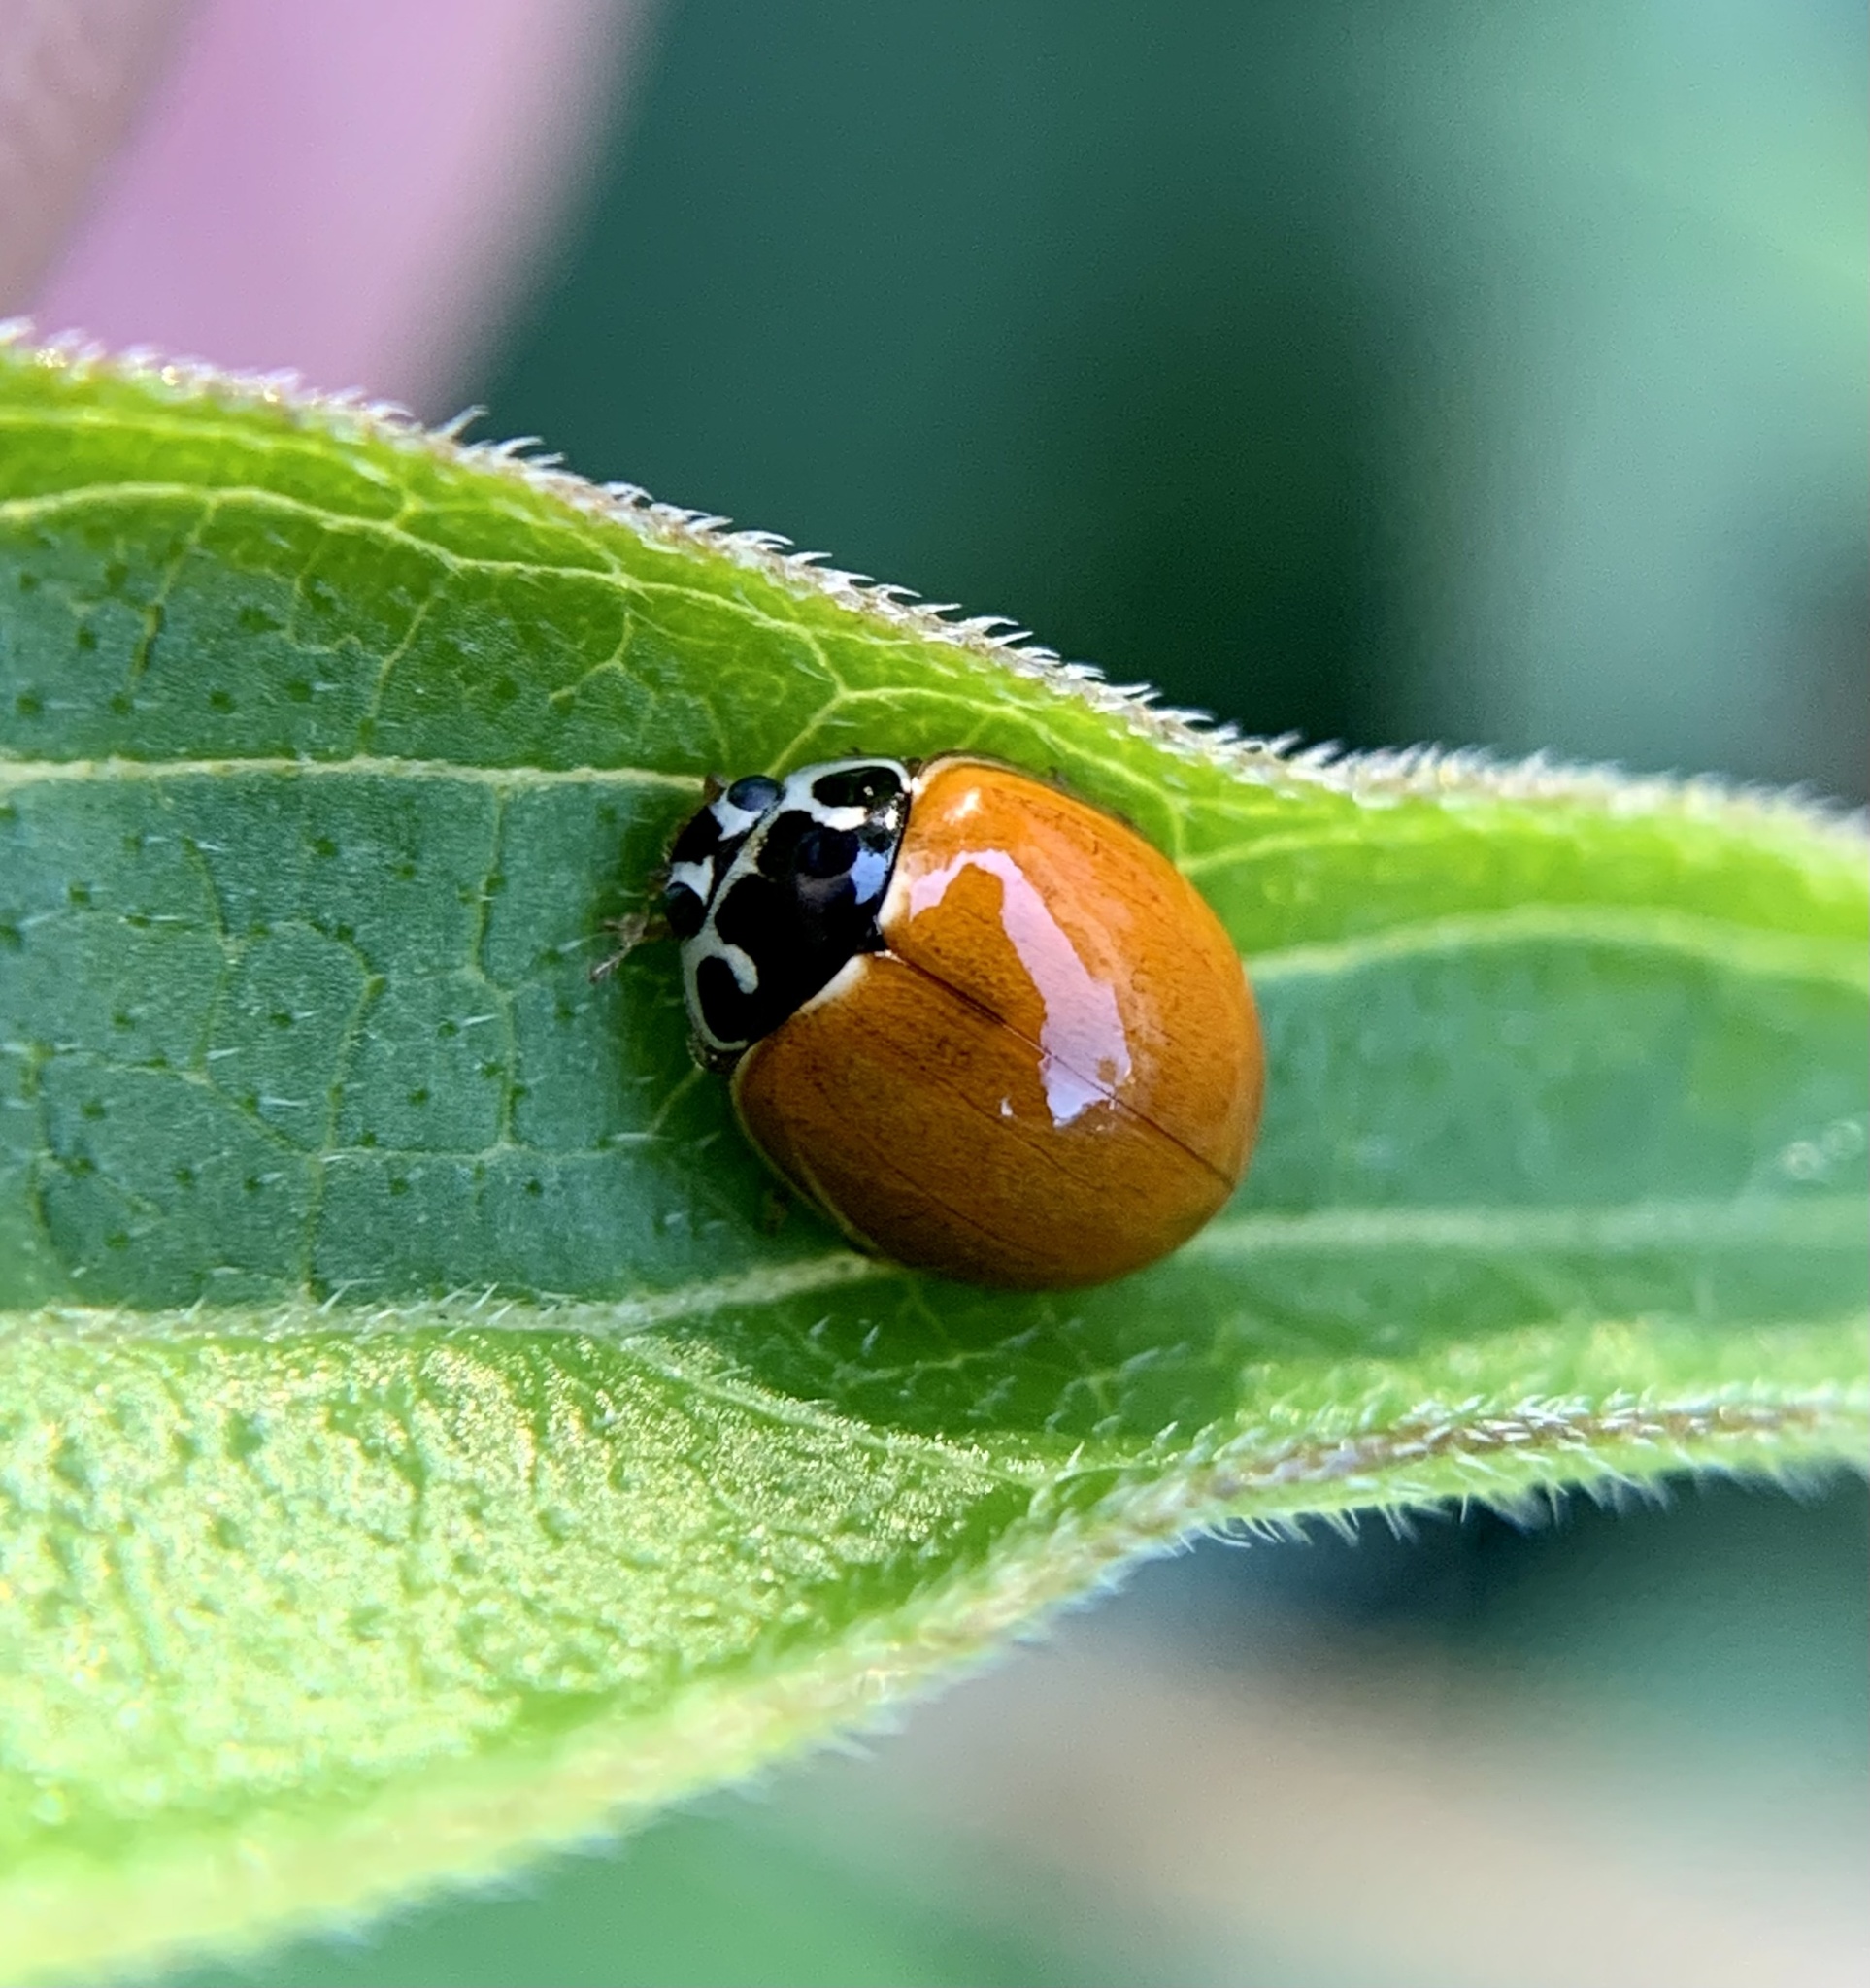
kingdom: Animalia
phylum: Arthropoda
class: Insecta
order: Coleoptera
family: Coccinellidae
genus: Cycloneda
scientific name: Cycloneda munda
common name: Polished lady beetle
